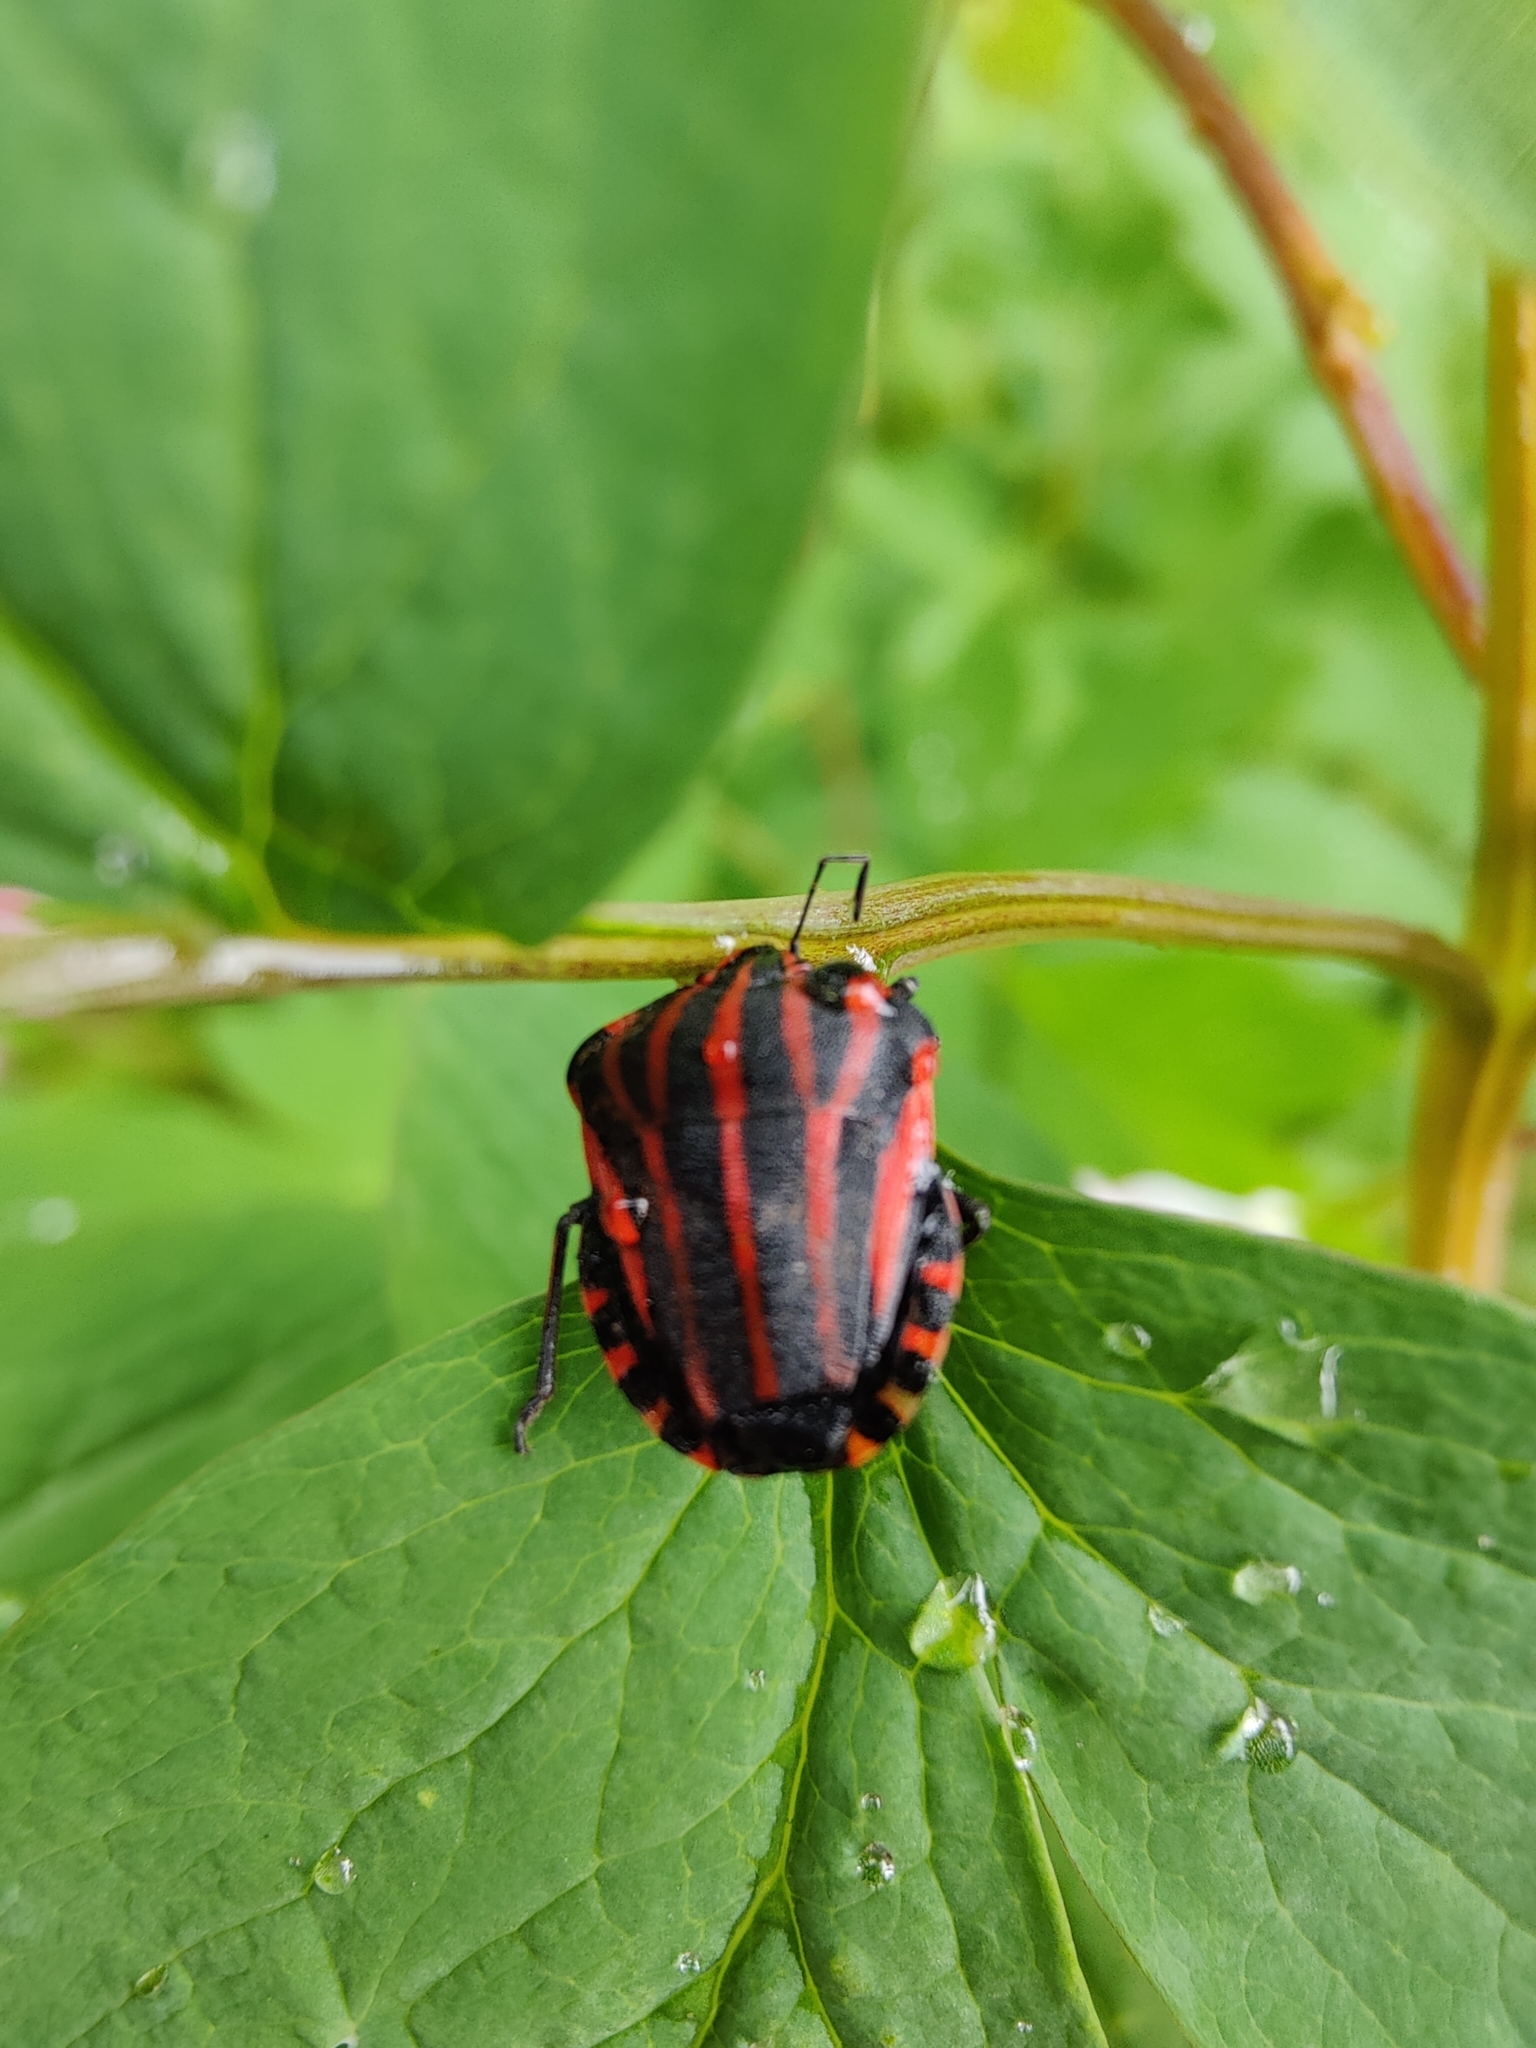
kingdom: Animalia
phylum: Arthropoda
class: Insecta
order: Hemiptera
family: Pentatomidae
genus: Graphosoma
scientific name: Graphosoma italicum
